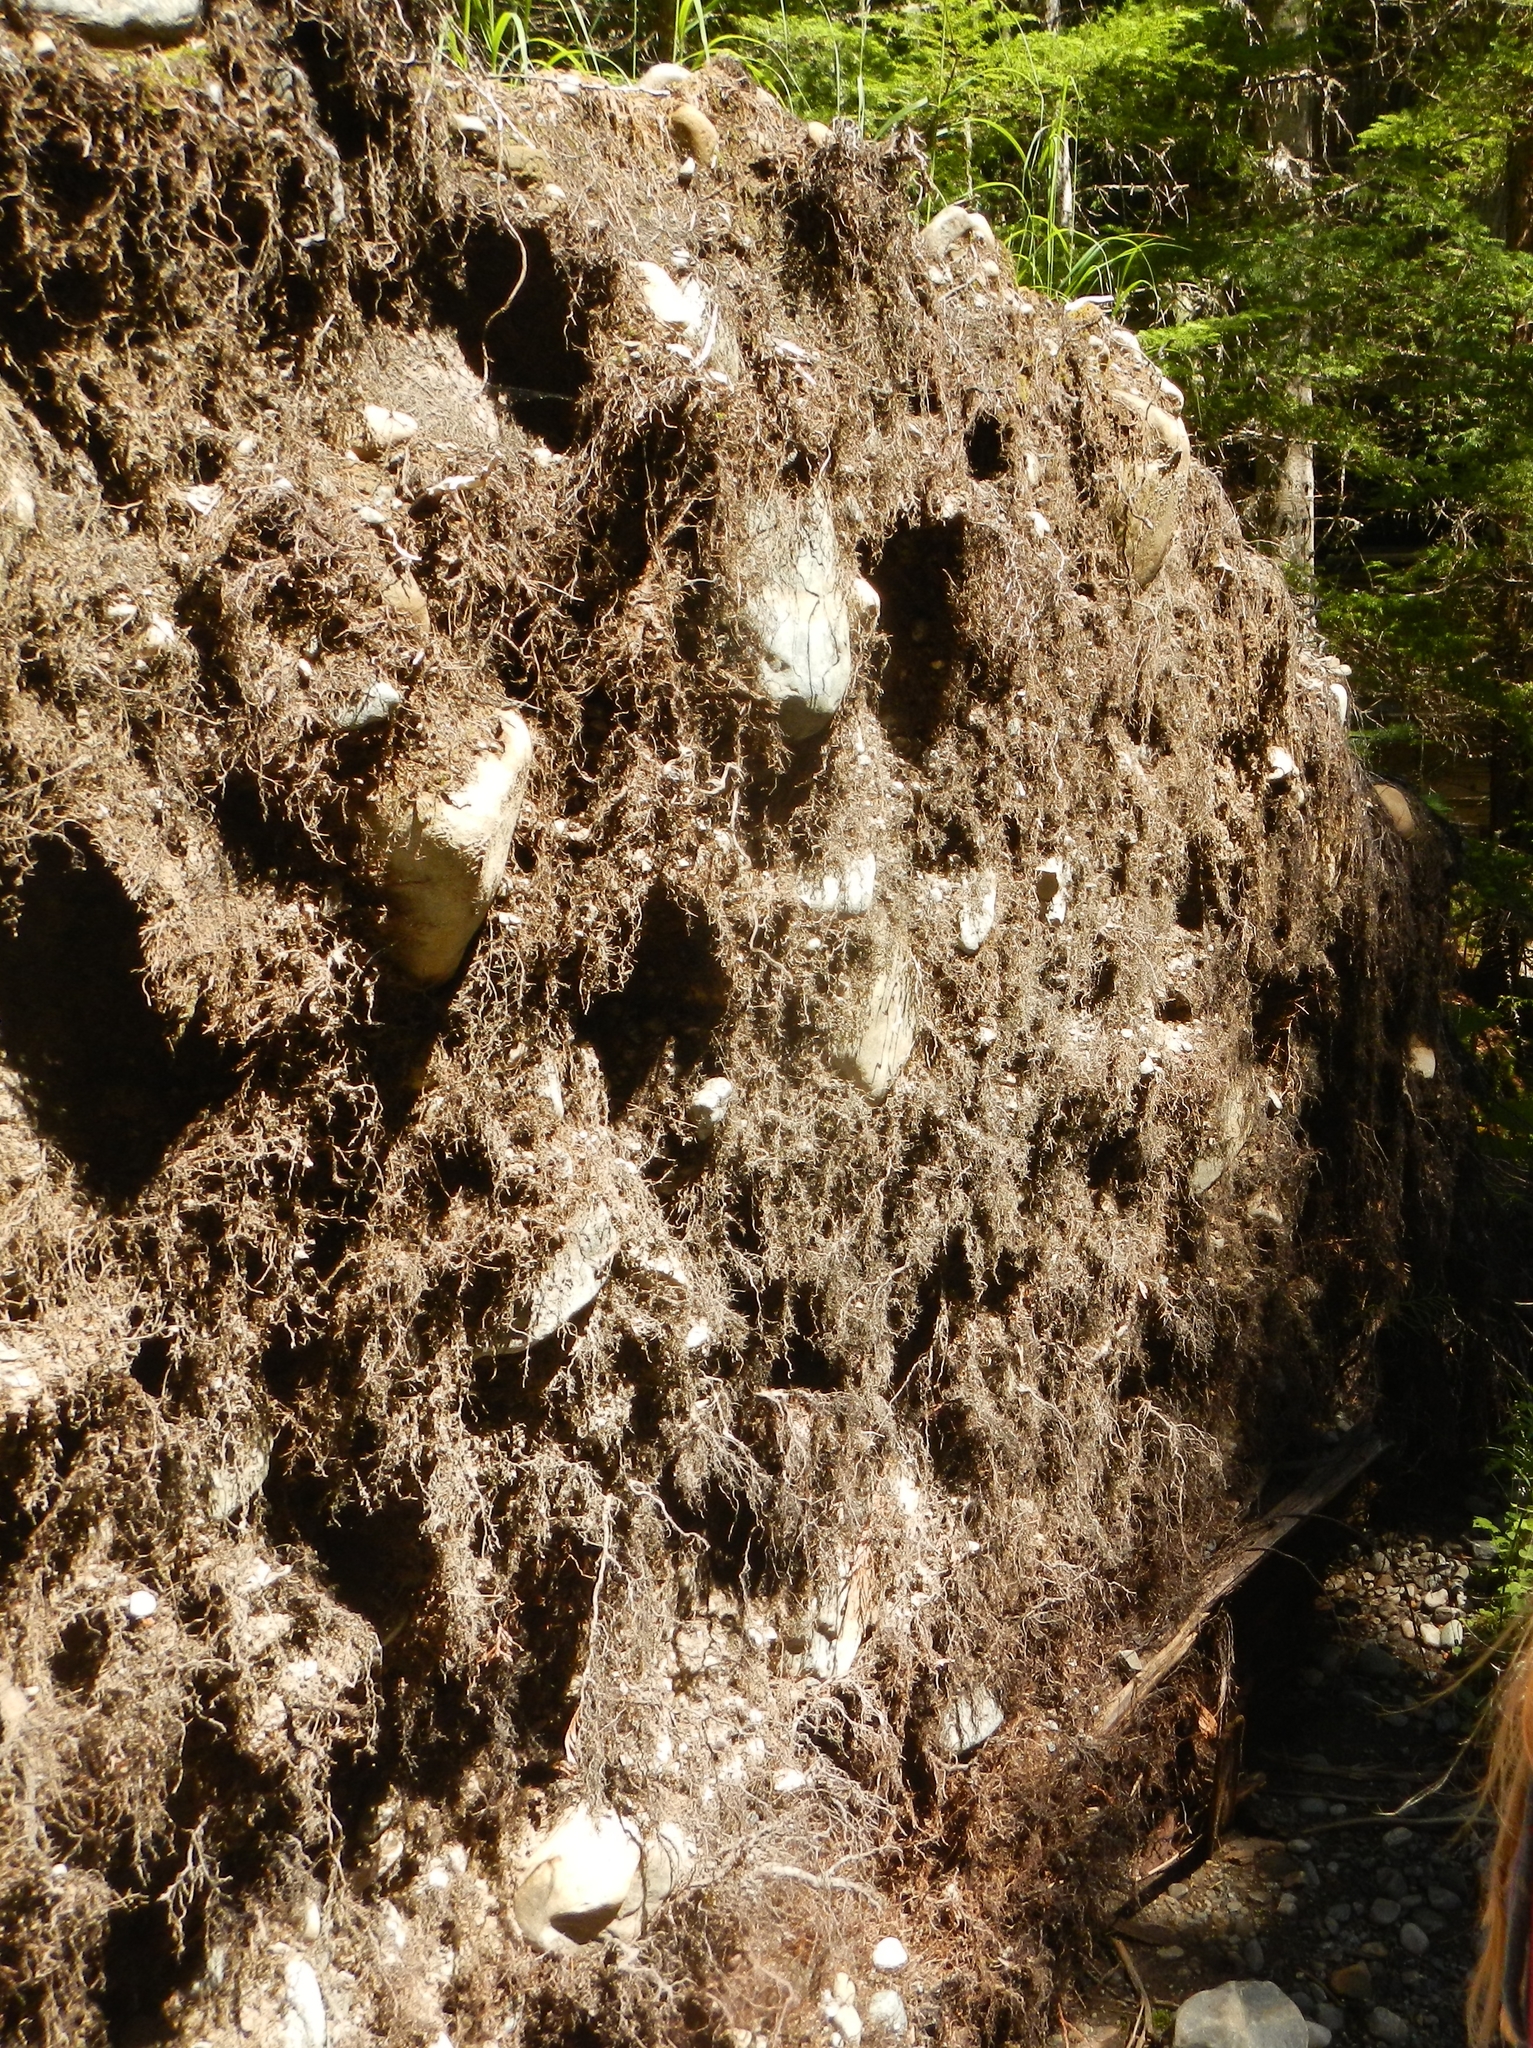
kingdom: Animalia
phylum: Chordata
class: Aves
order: Passeriformes
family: Troglodytidae
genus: Troglodytes
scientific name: Troglodytes pacificus
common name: Pacific wren
